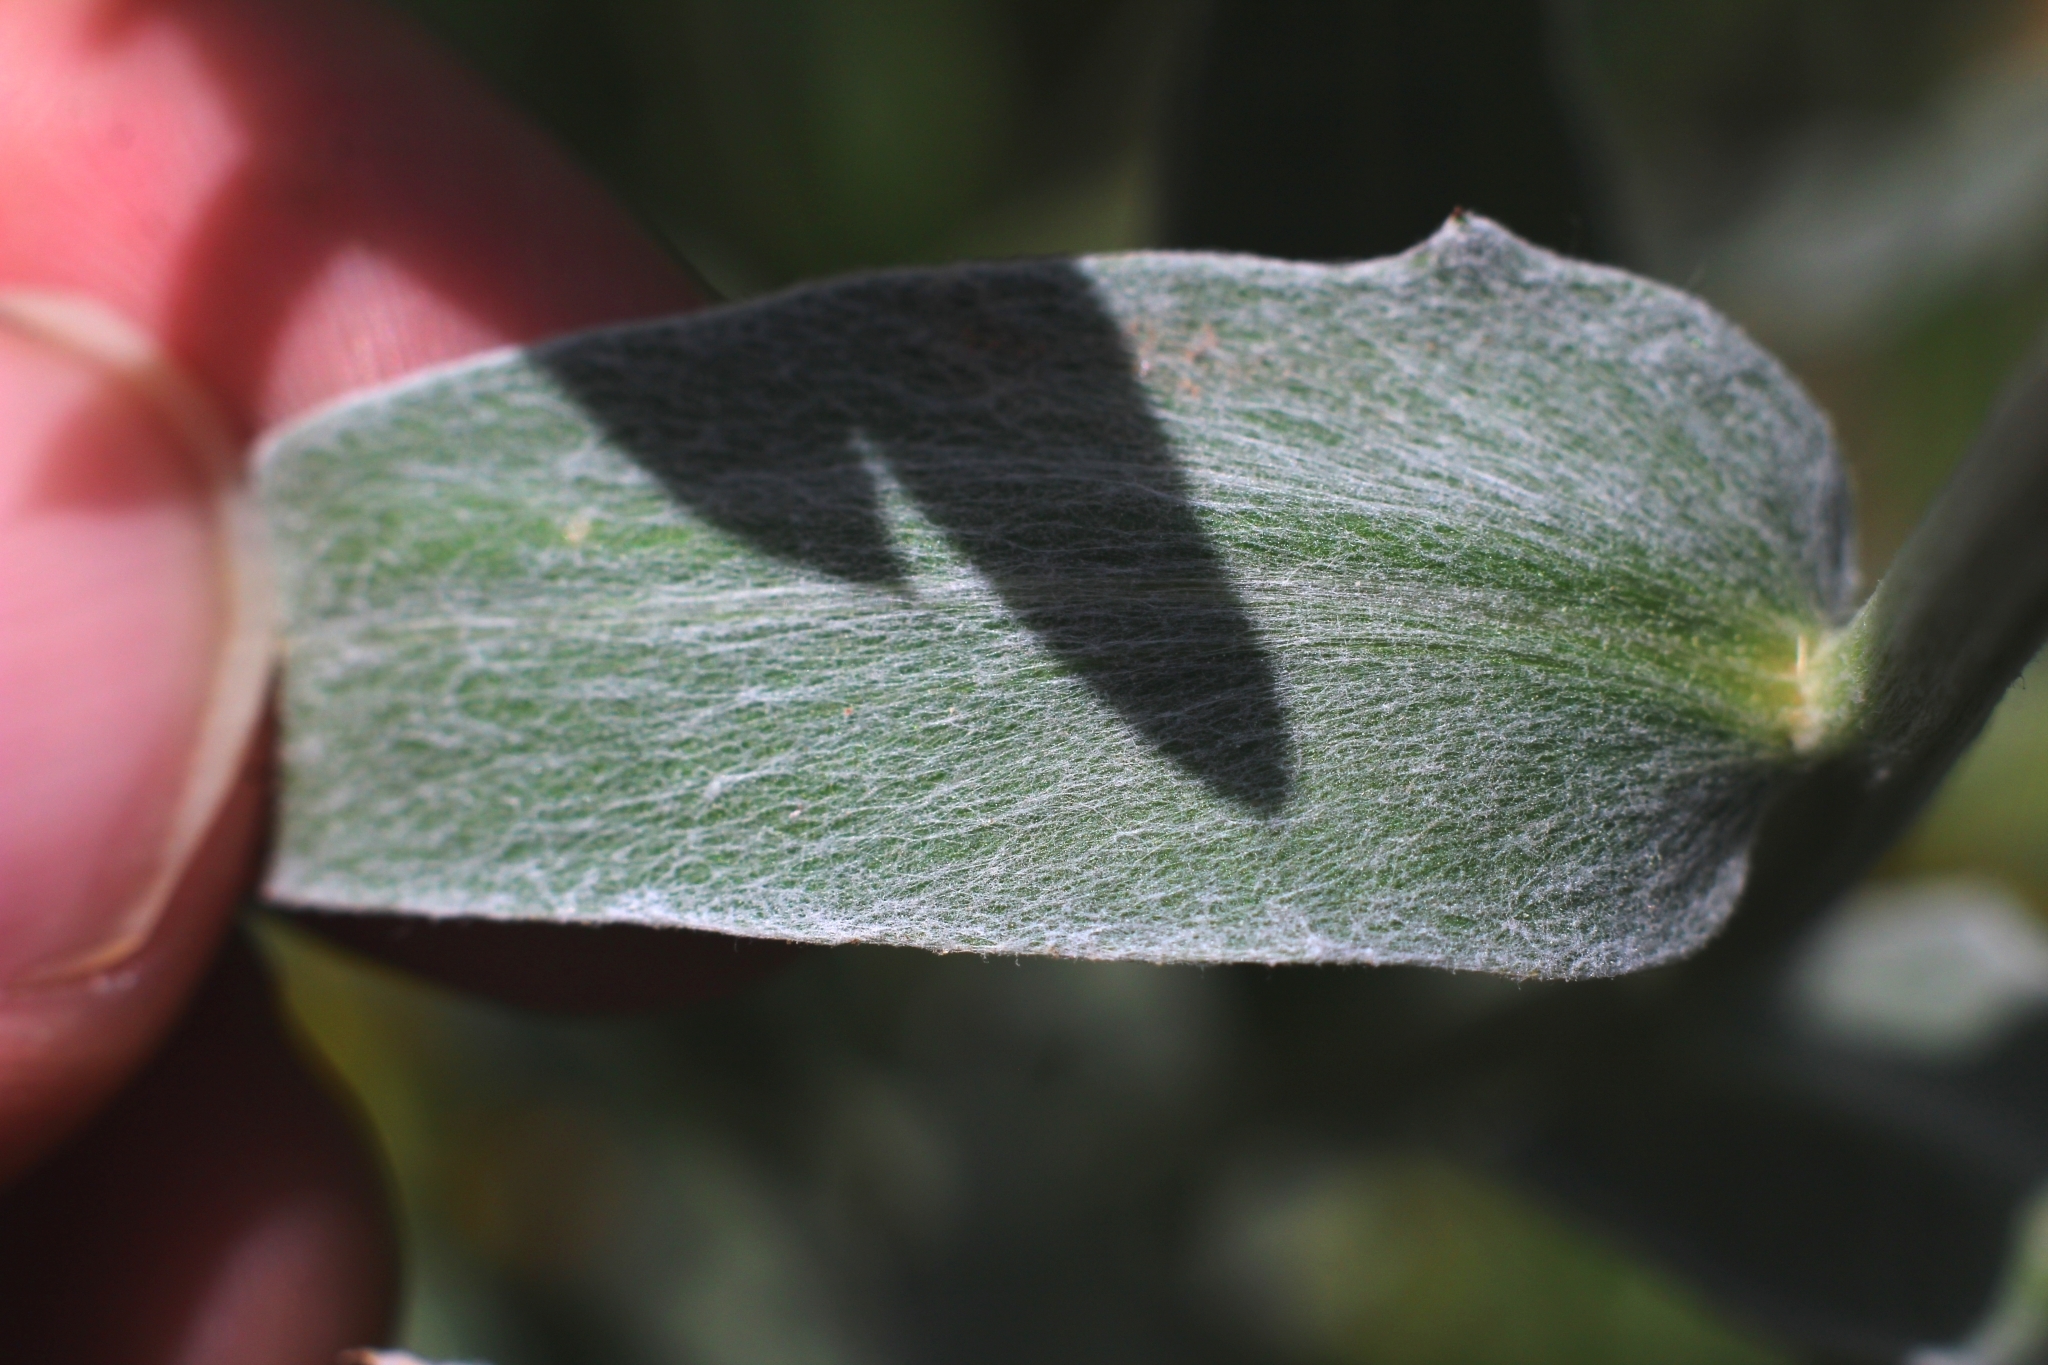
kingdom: Plantae
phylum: Tracheophyta
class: Magnoliopsida
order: Asterales
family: Asteraceae
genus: Centaurea
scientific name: Centaurea uniflora
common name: Singleflower knapweed
